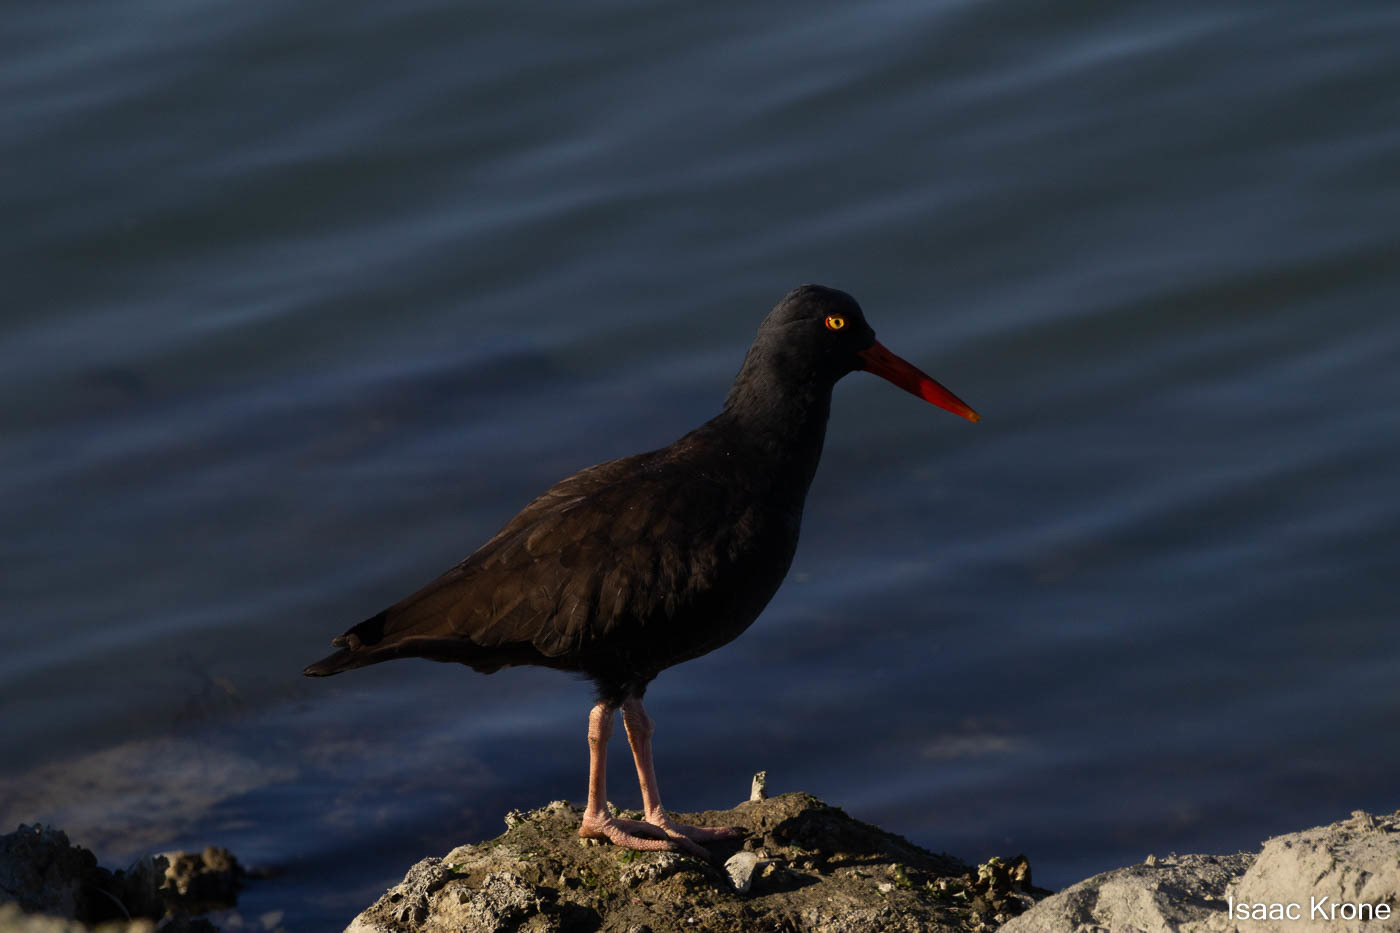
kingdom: Animalia
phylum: Chordata
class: Aves
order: Charadriiformes
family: Haematopodidae
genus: Haematopus
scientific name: Haematopus bachmani
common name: Black oystercatcher
